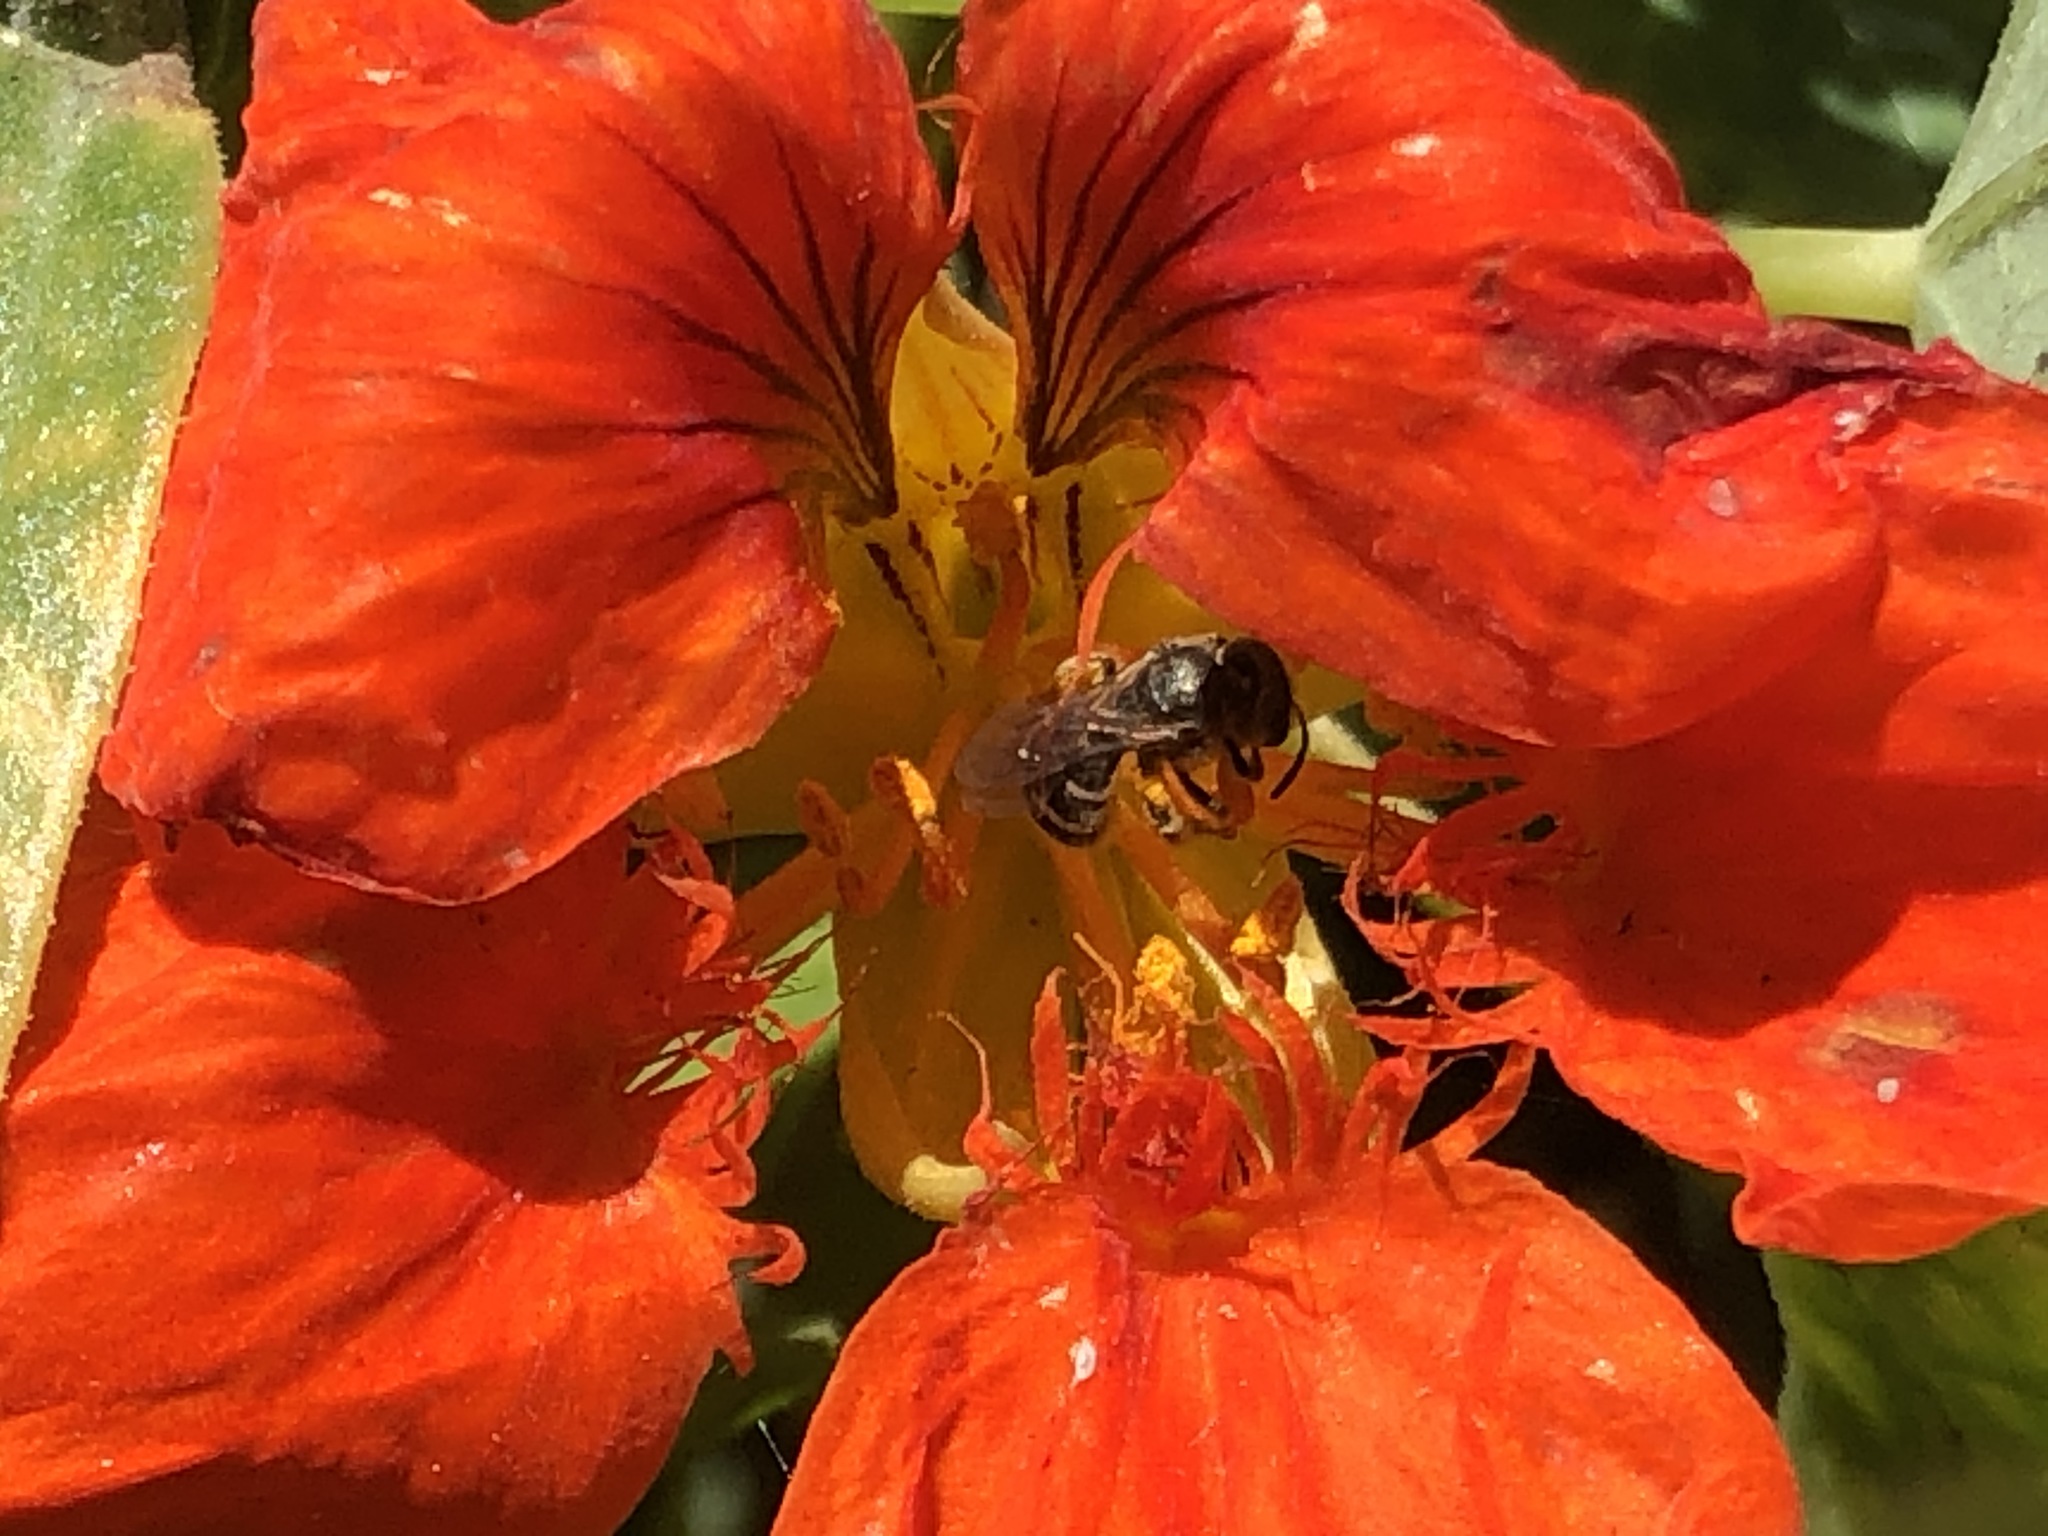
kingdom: Animalia
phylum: Arthropoda
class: Insecta
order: Hymenoptera
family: Halictidae
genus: Halictus
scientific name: Halictus tripartitus
